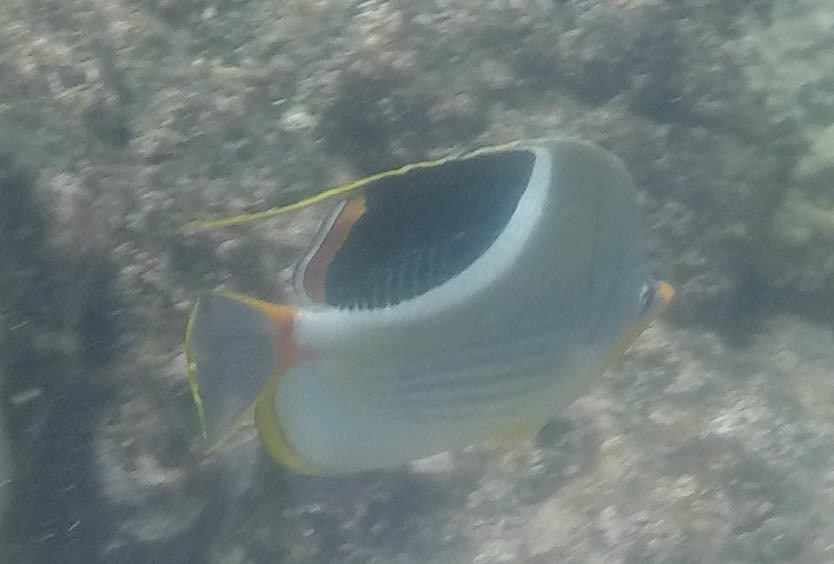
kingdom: Animalia
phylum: Chordata
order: Perciformes
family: Chaetodontidae
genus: Chaetodon
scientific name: Chaetodon ephippium
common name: Saddled butterflyfish
